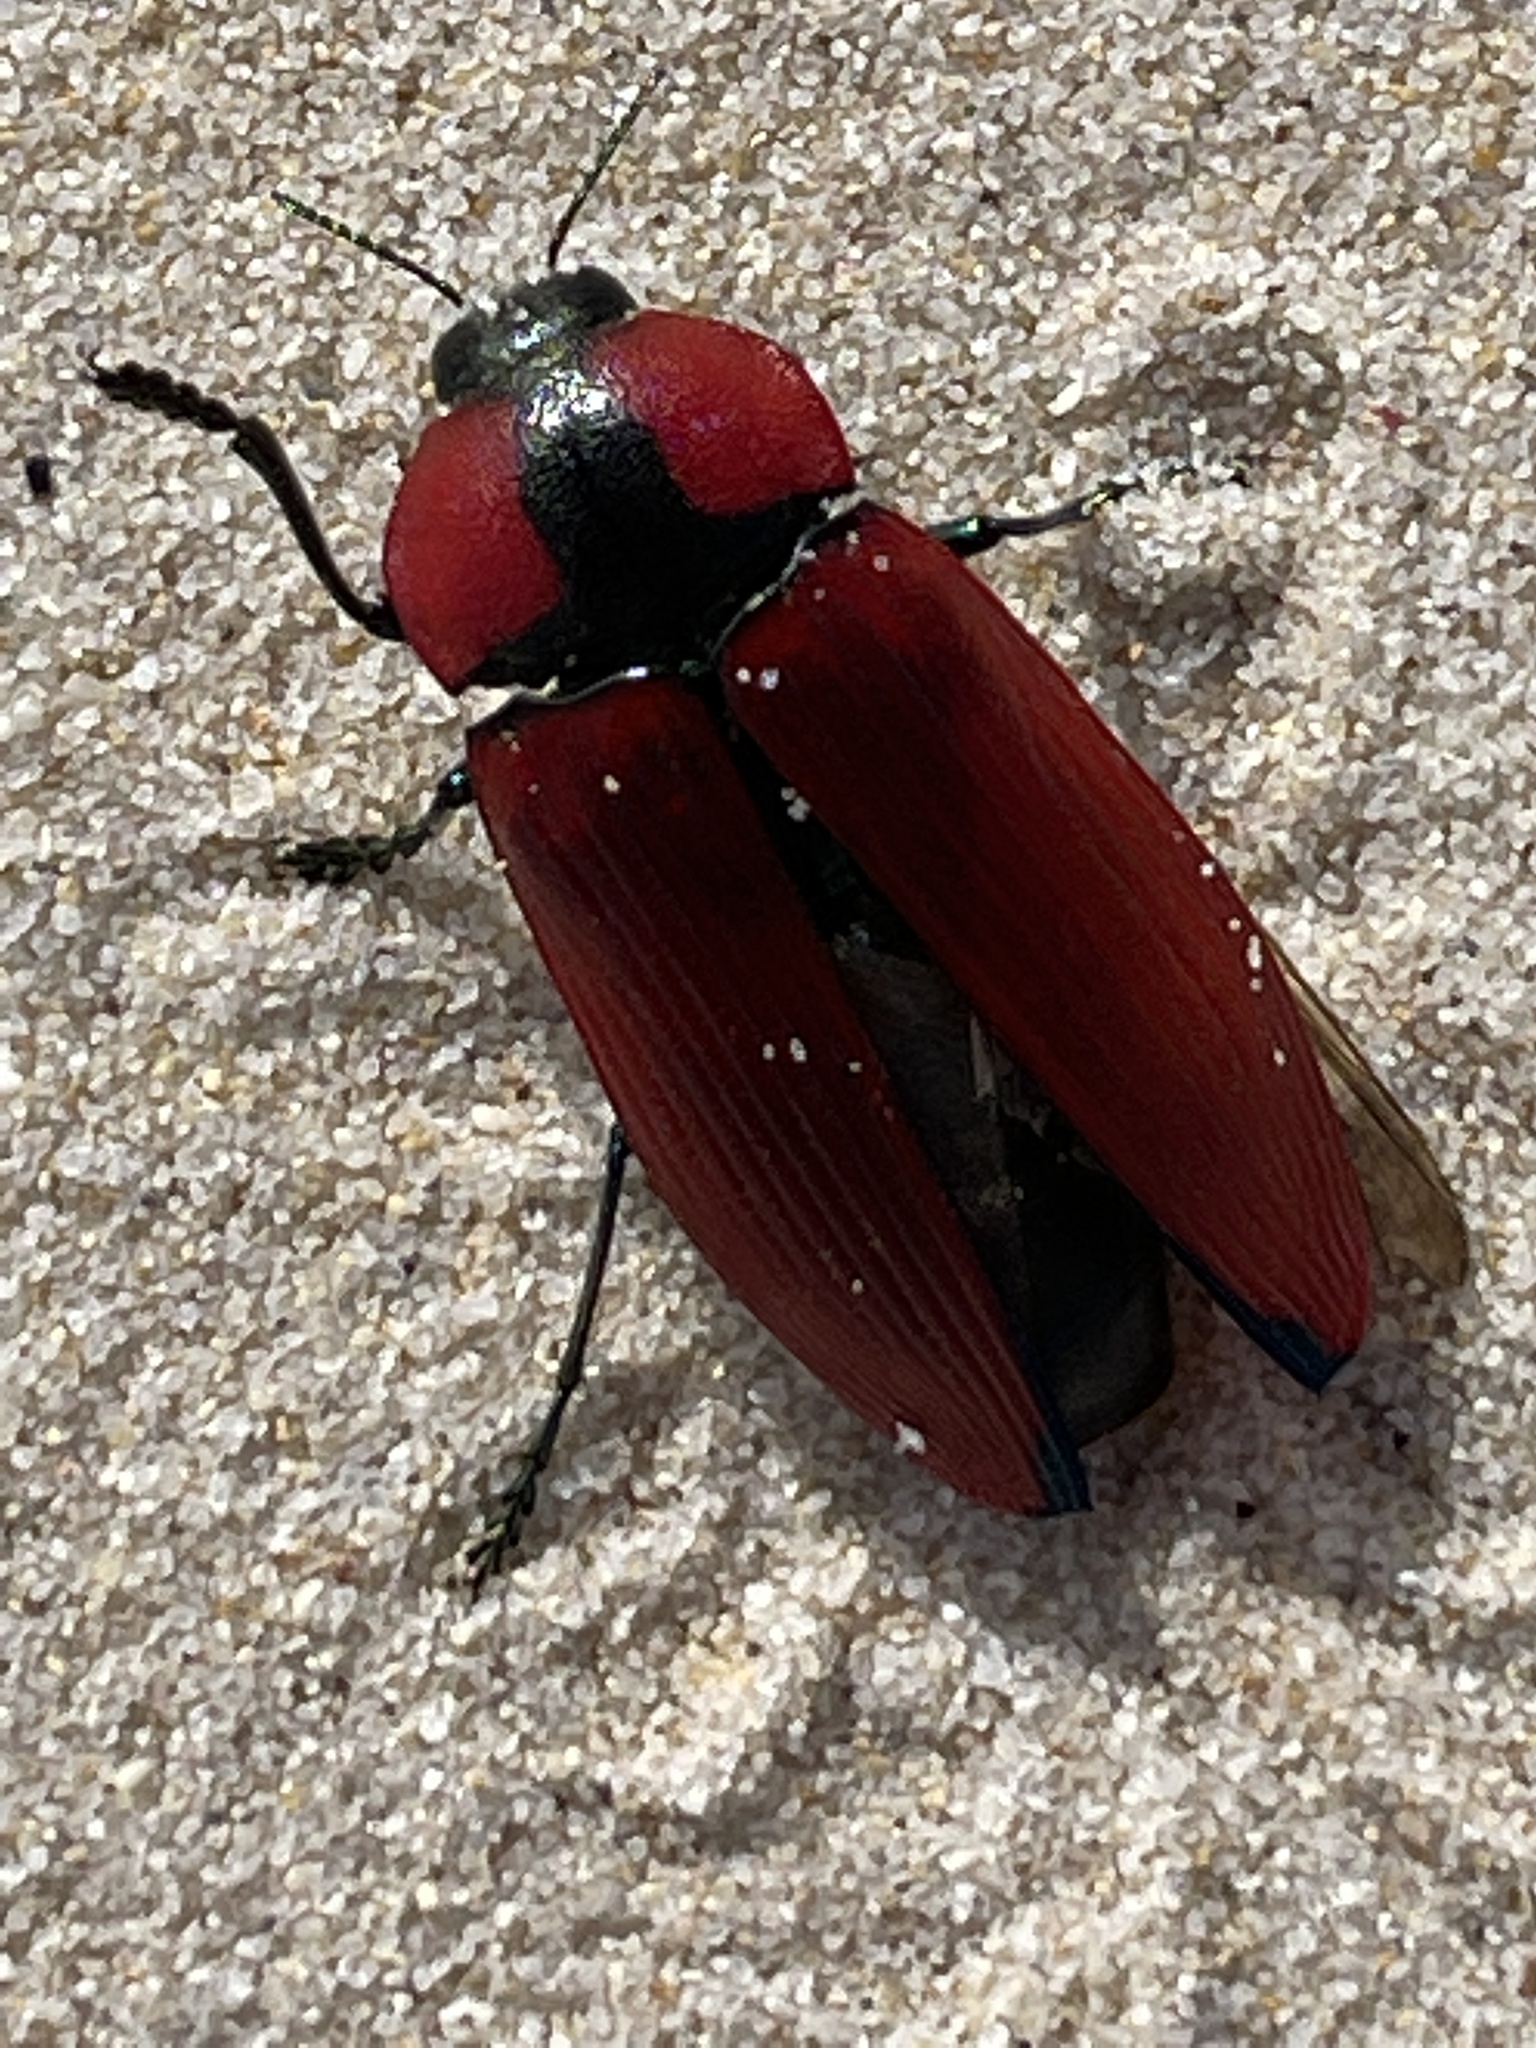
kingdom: Animalia
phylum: Arthropoda
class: Insecta
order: Coleoptera
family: Buprestidae
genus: Temognatha
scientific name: Temognatha sanguinipennis
